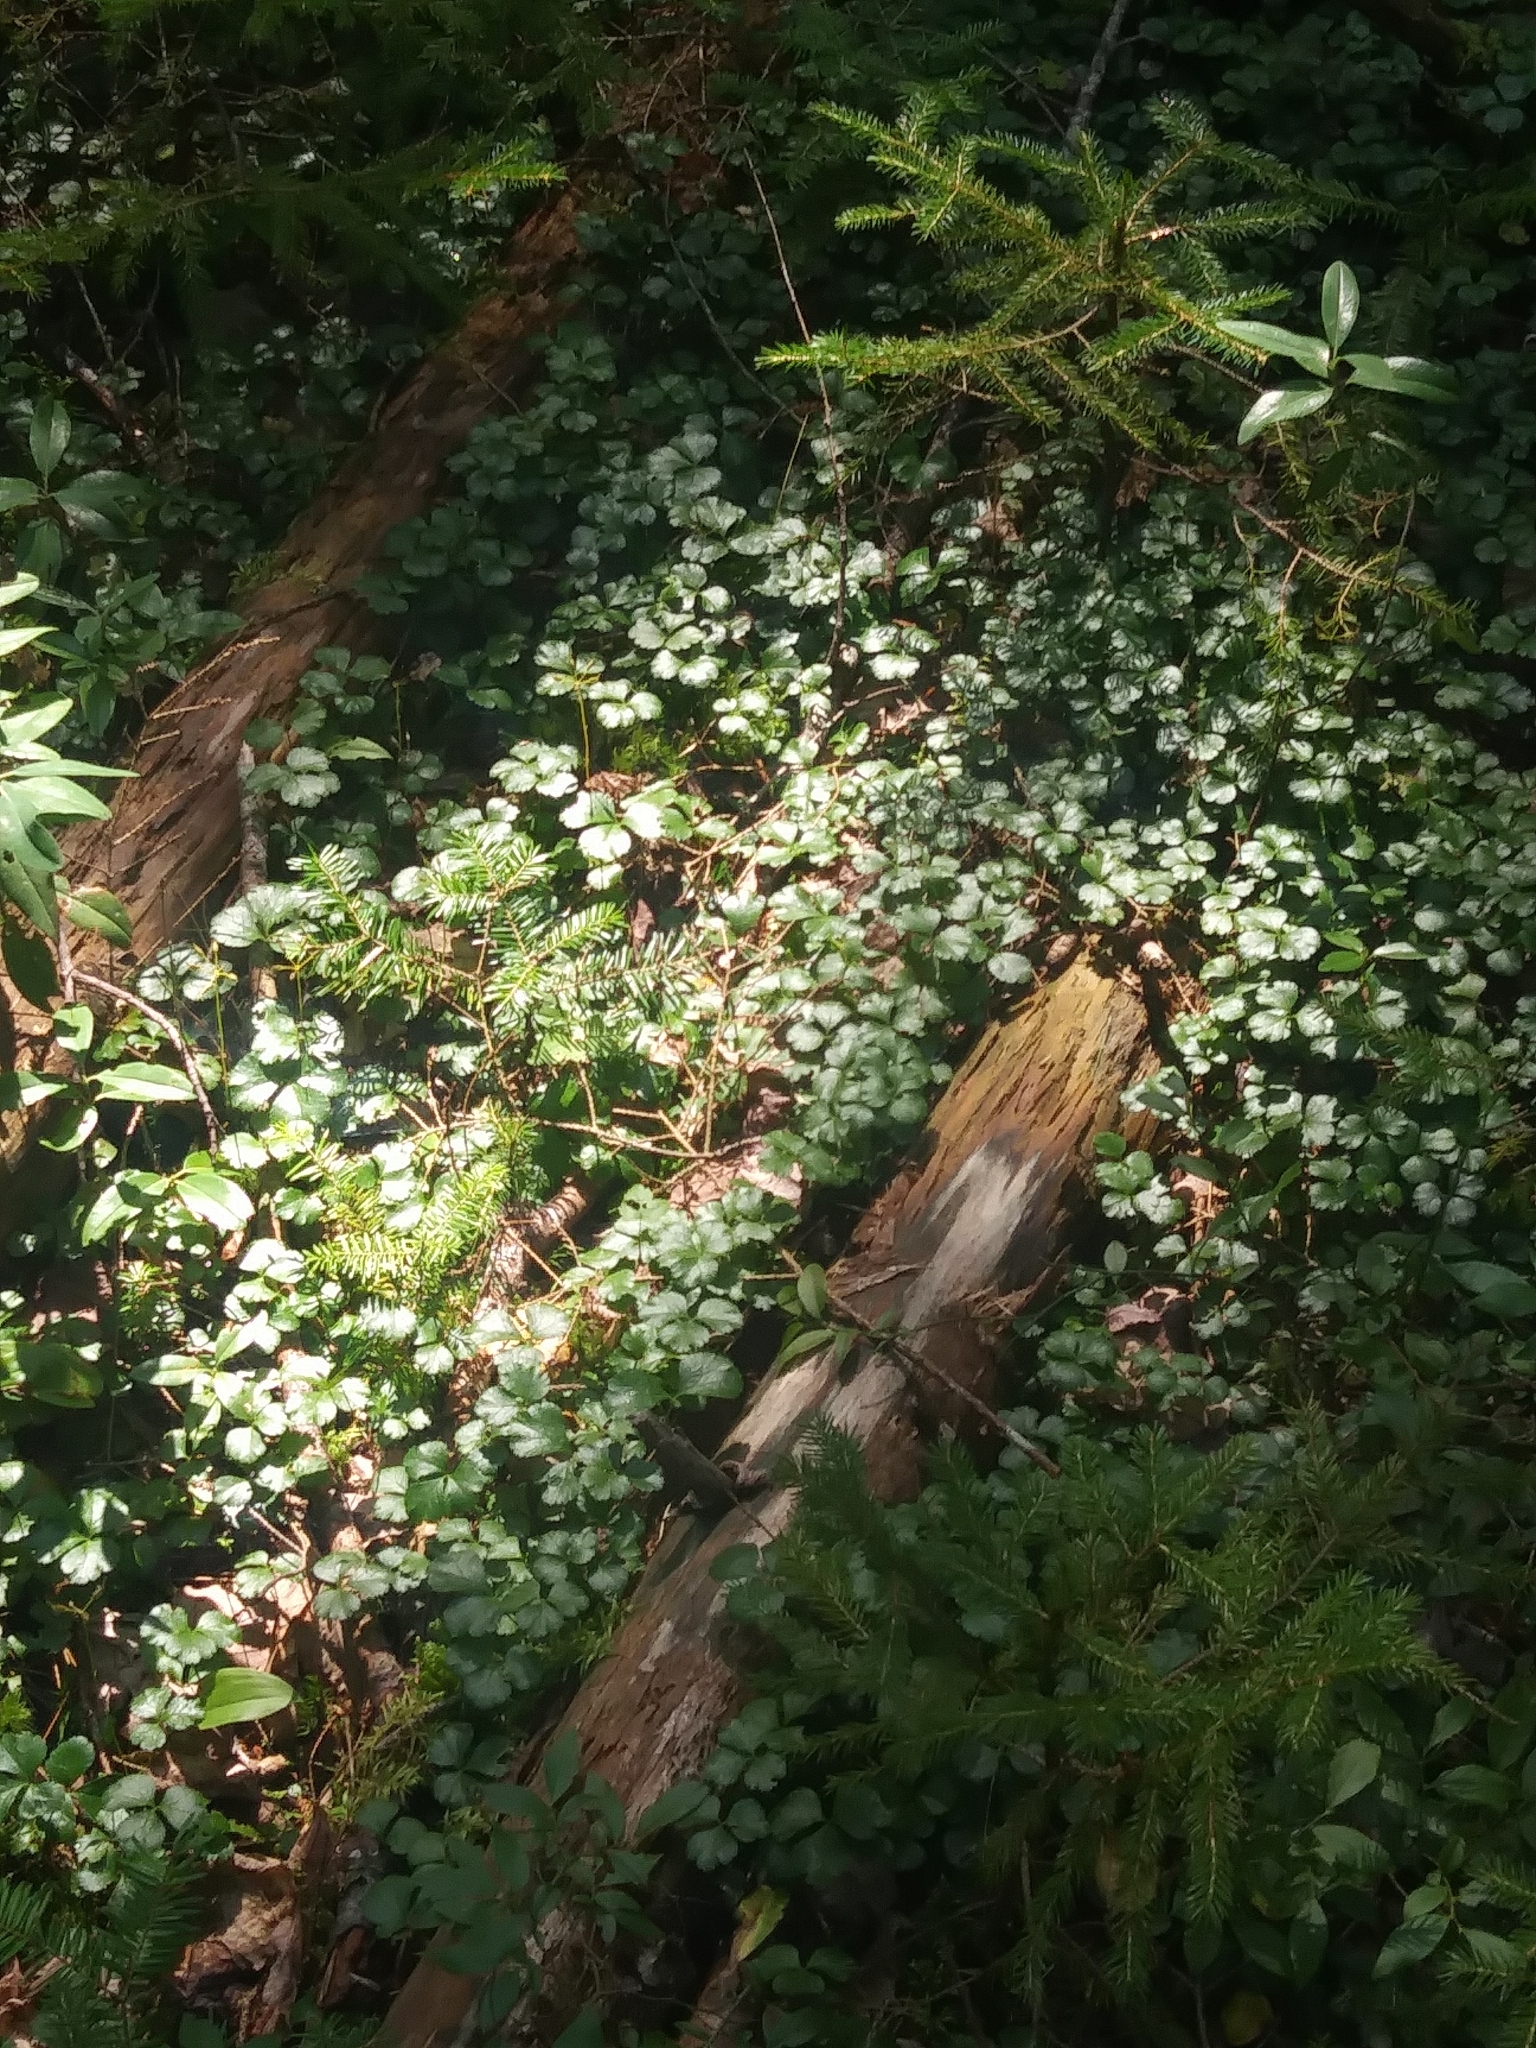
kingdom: Plantae
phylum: Tracheophyta
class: Magnoliopsida
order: Ranunculales
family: Ranunculaceae
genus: Coptis
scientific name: Coptis trifolia
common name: Canker-root
